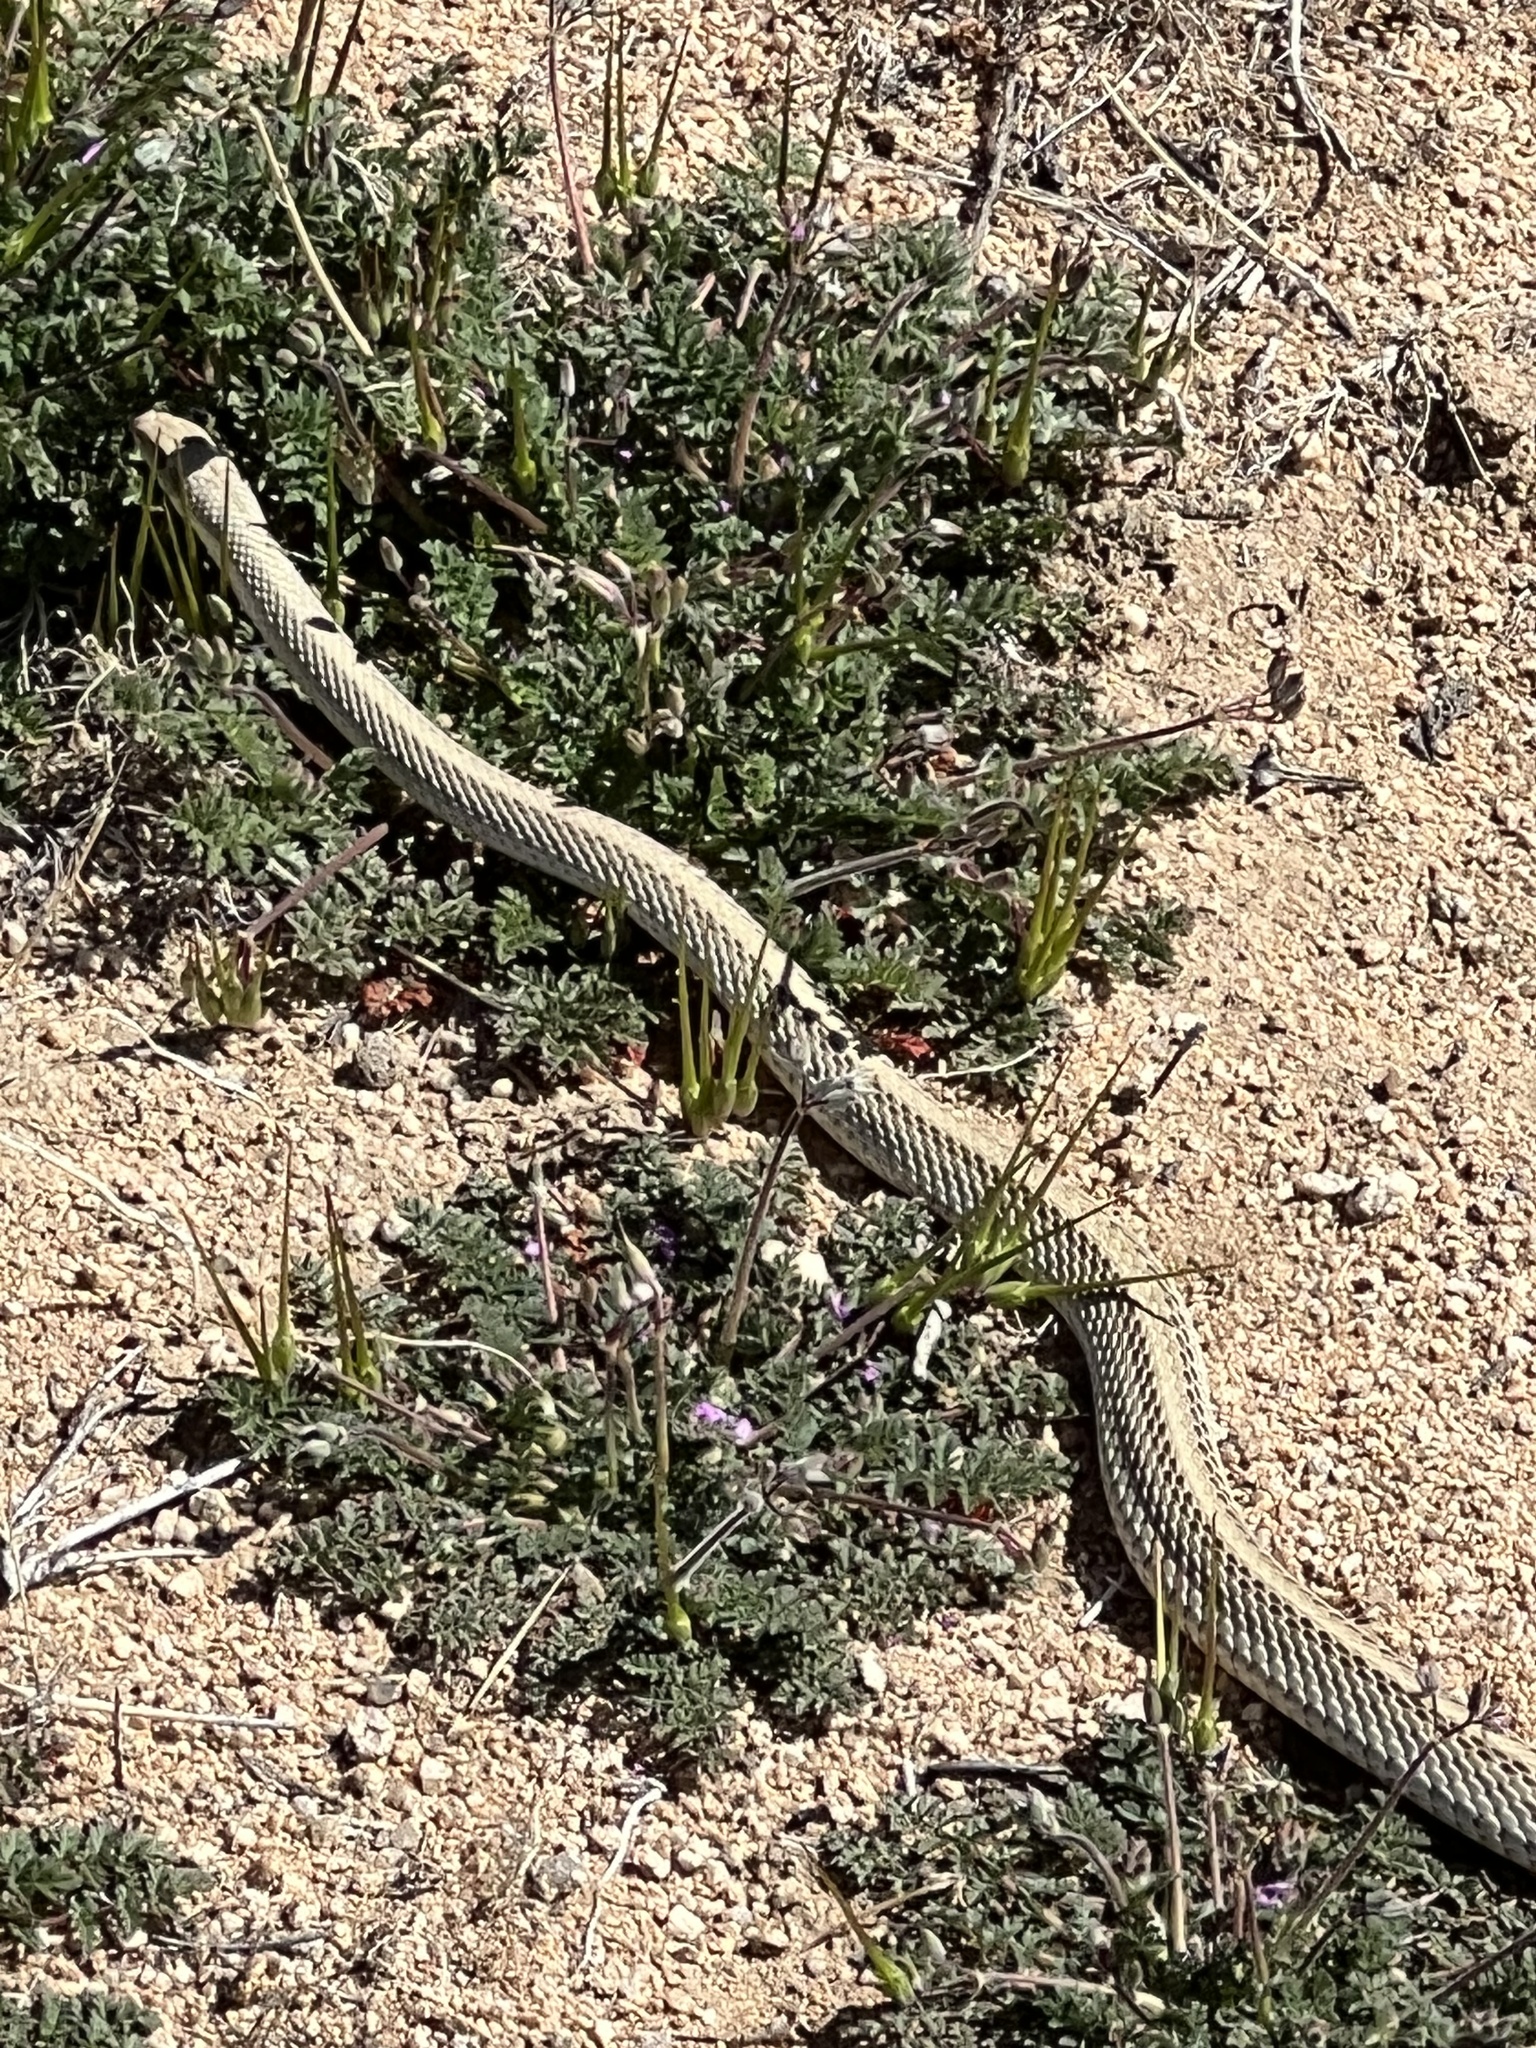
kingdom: Animalia
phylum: Chordata
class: Squamata
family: Colubridae
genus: Salvadora
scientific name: Salvadora hexalepis
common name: Western patchnose snake
